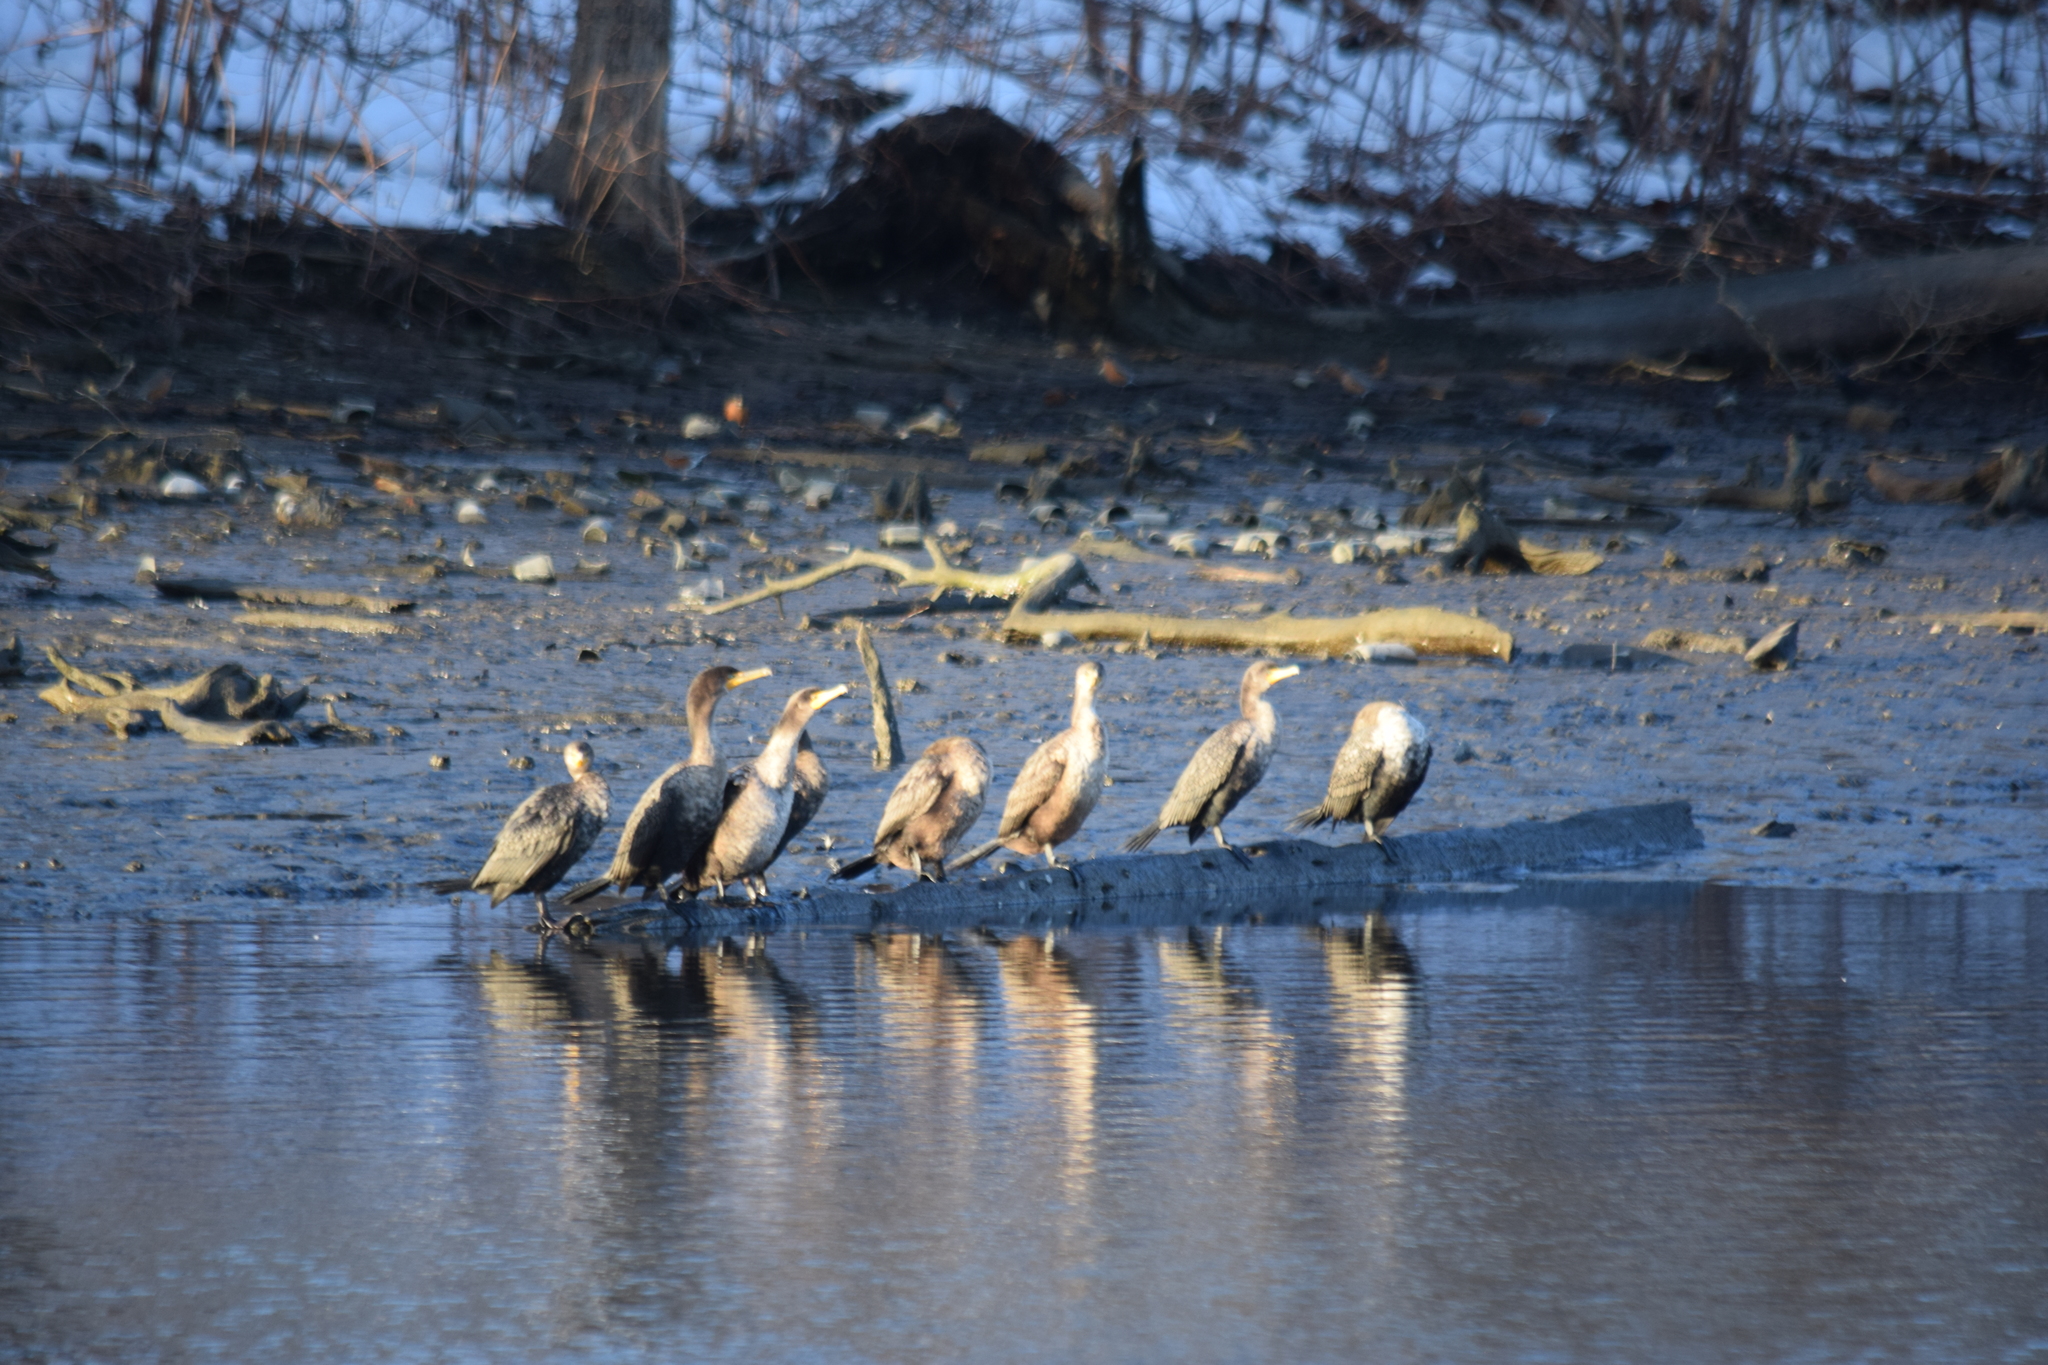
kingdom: Animalia
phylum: Chordata
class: Aves
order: Suliformes
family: Phalacrocoracidae
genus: Phalacrocorax
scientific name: Phalacrocorax auritus
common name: Double-crested cormorant
